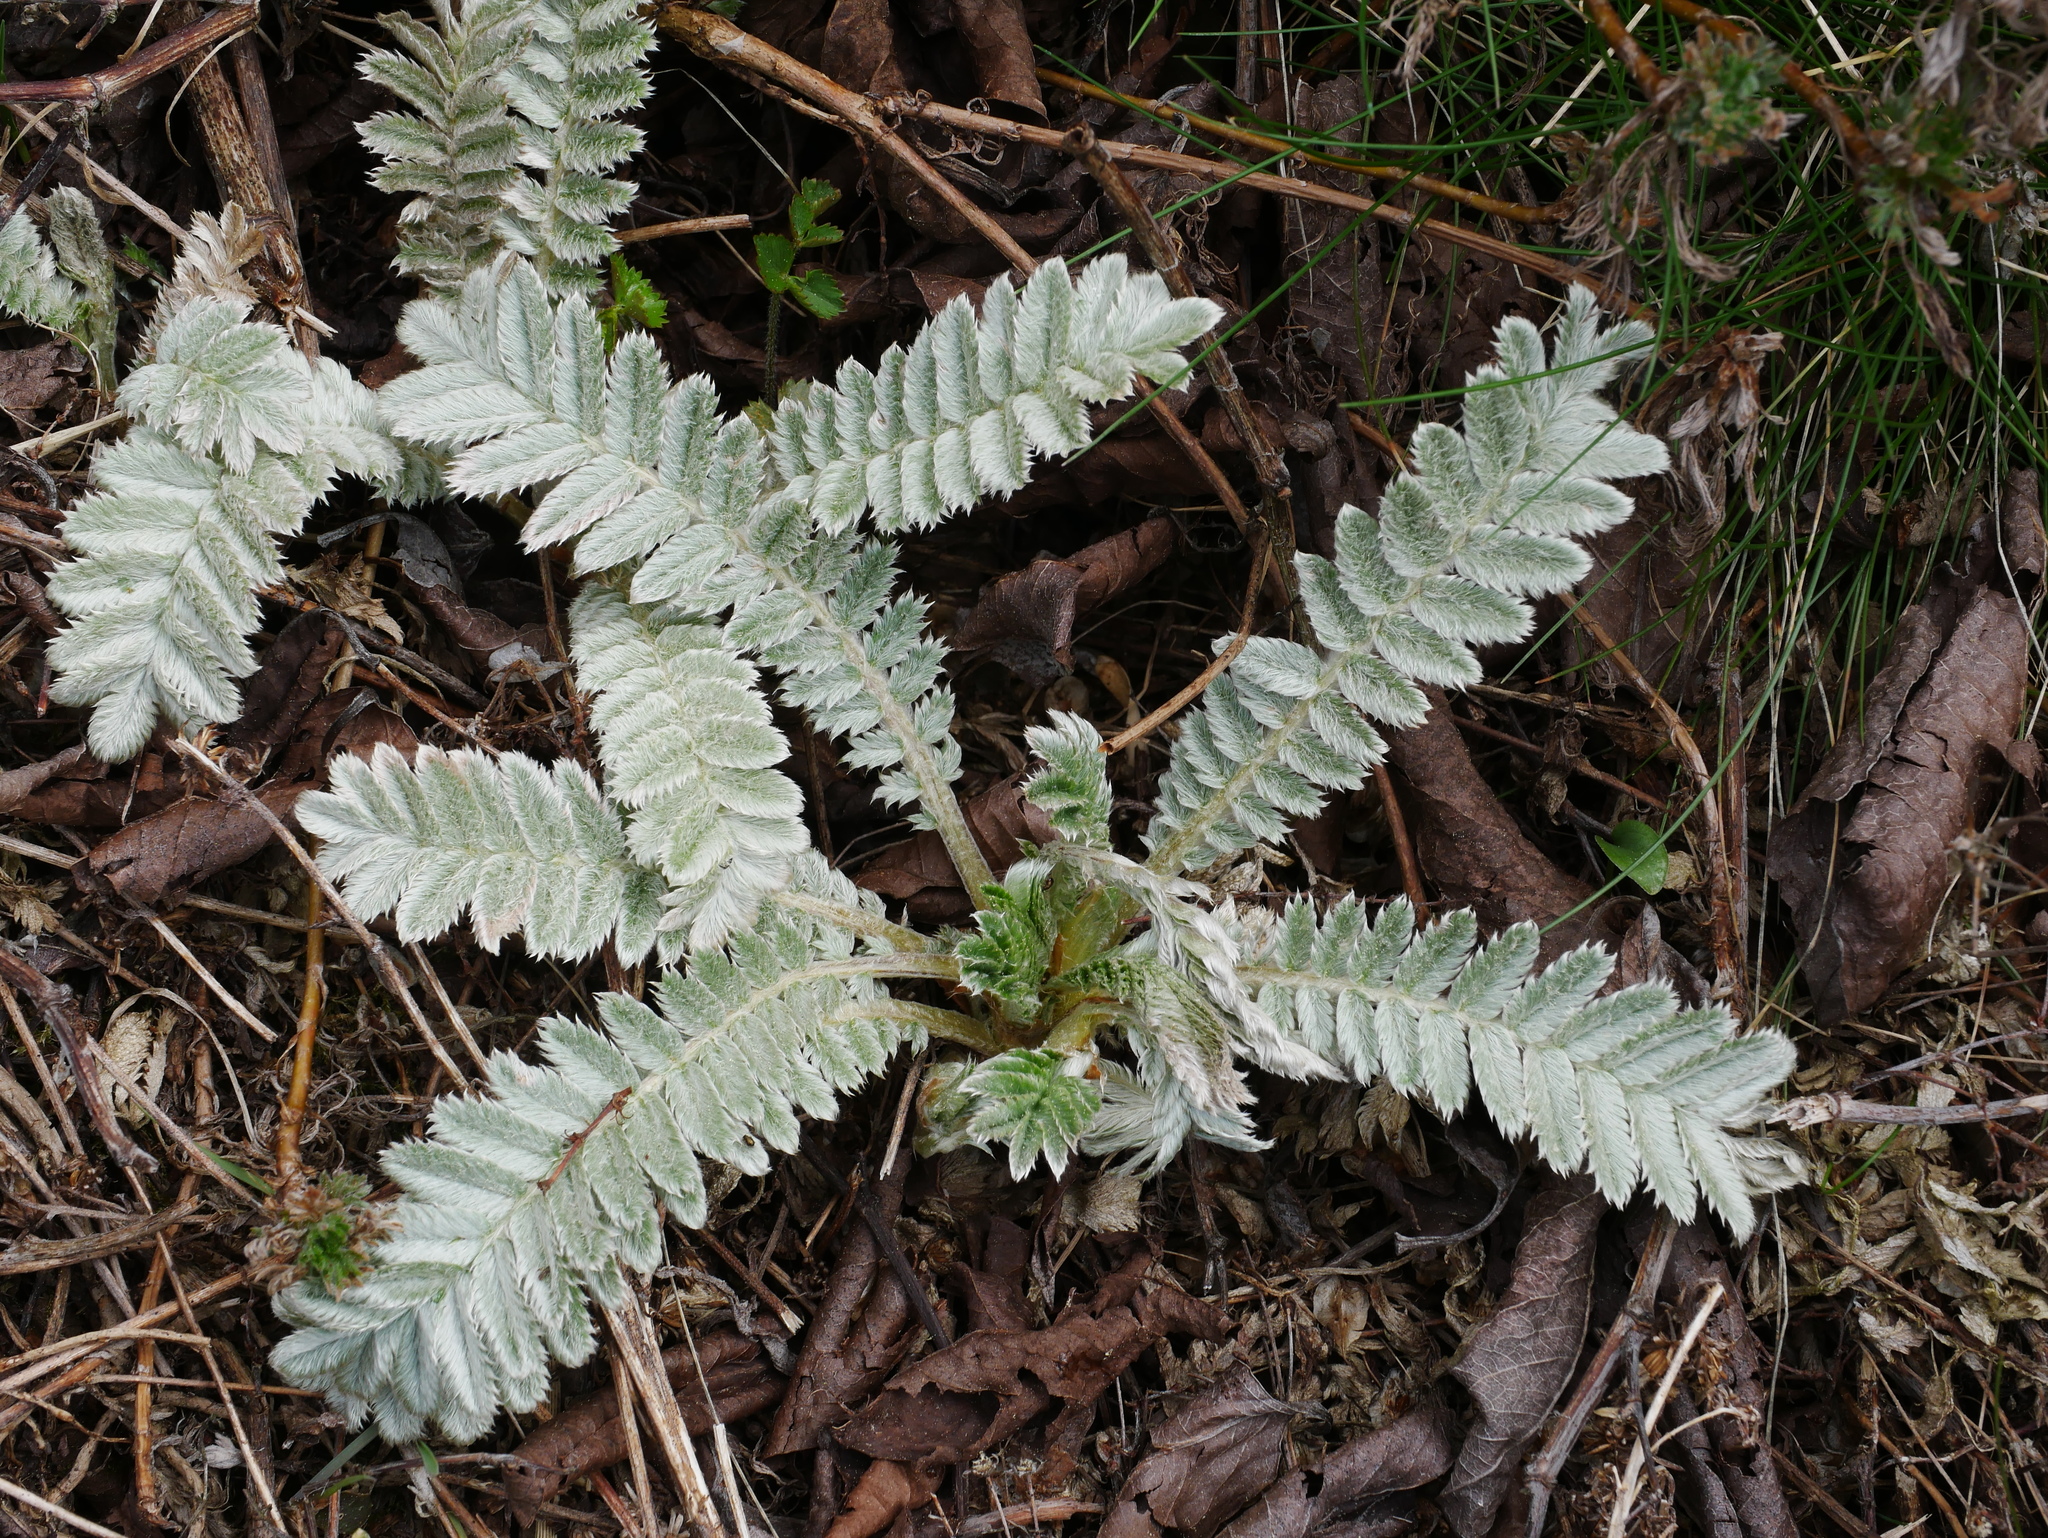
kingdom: Plantae
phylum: Tracheophyta
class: Magnoliopsida
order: Rosales
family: Rosaceae
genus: Argentina
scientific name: Argentina leuconota
